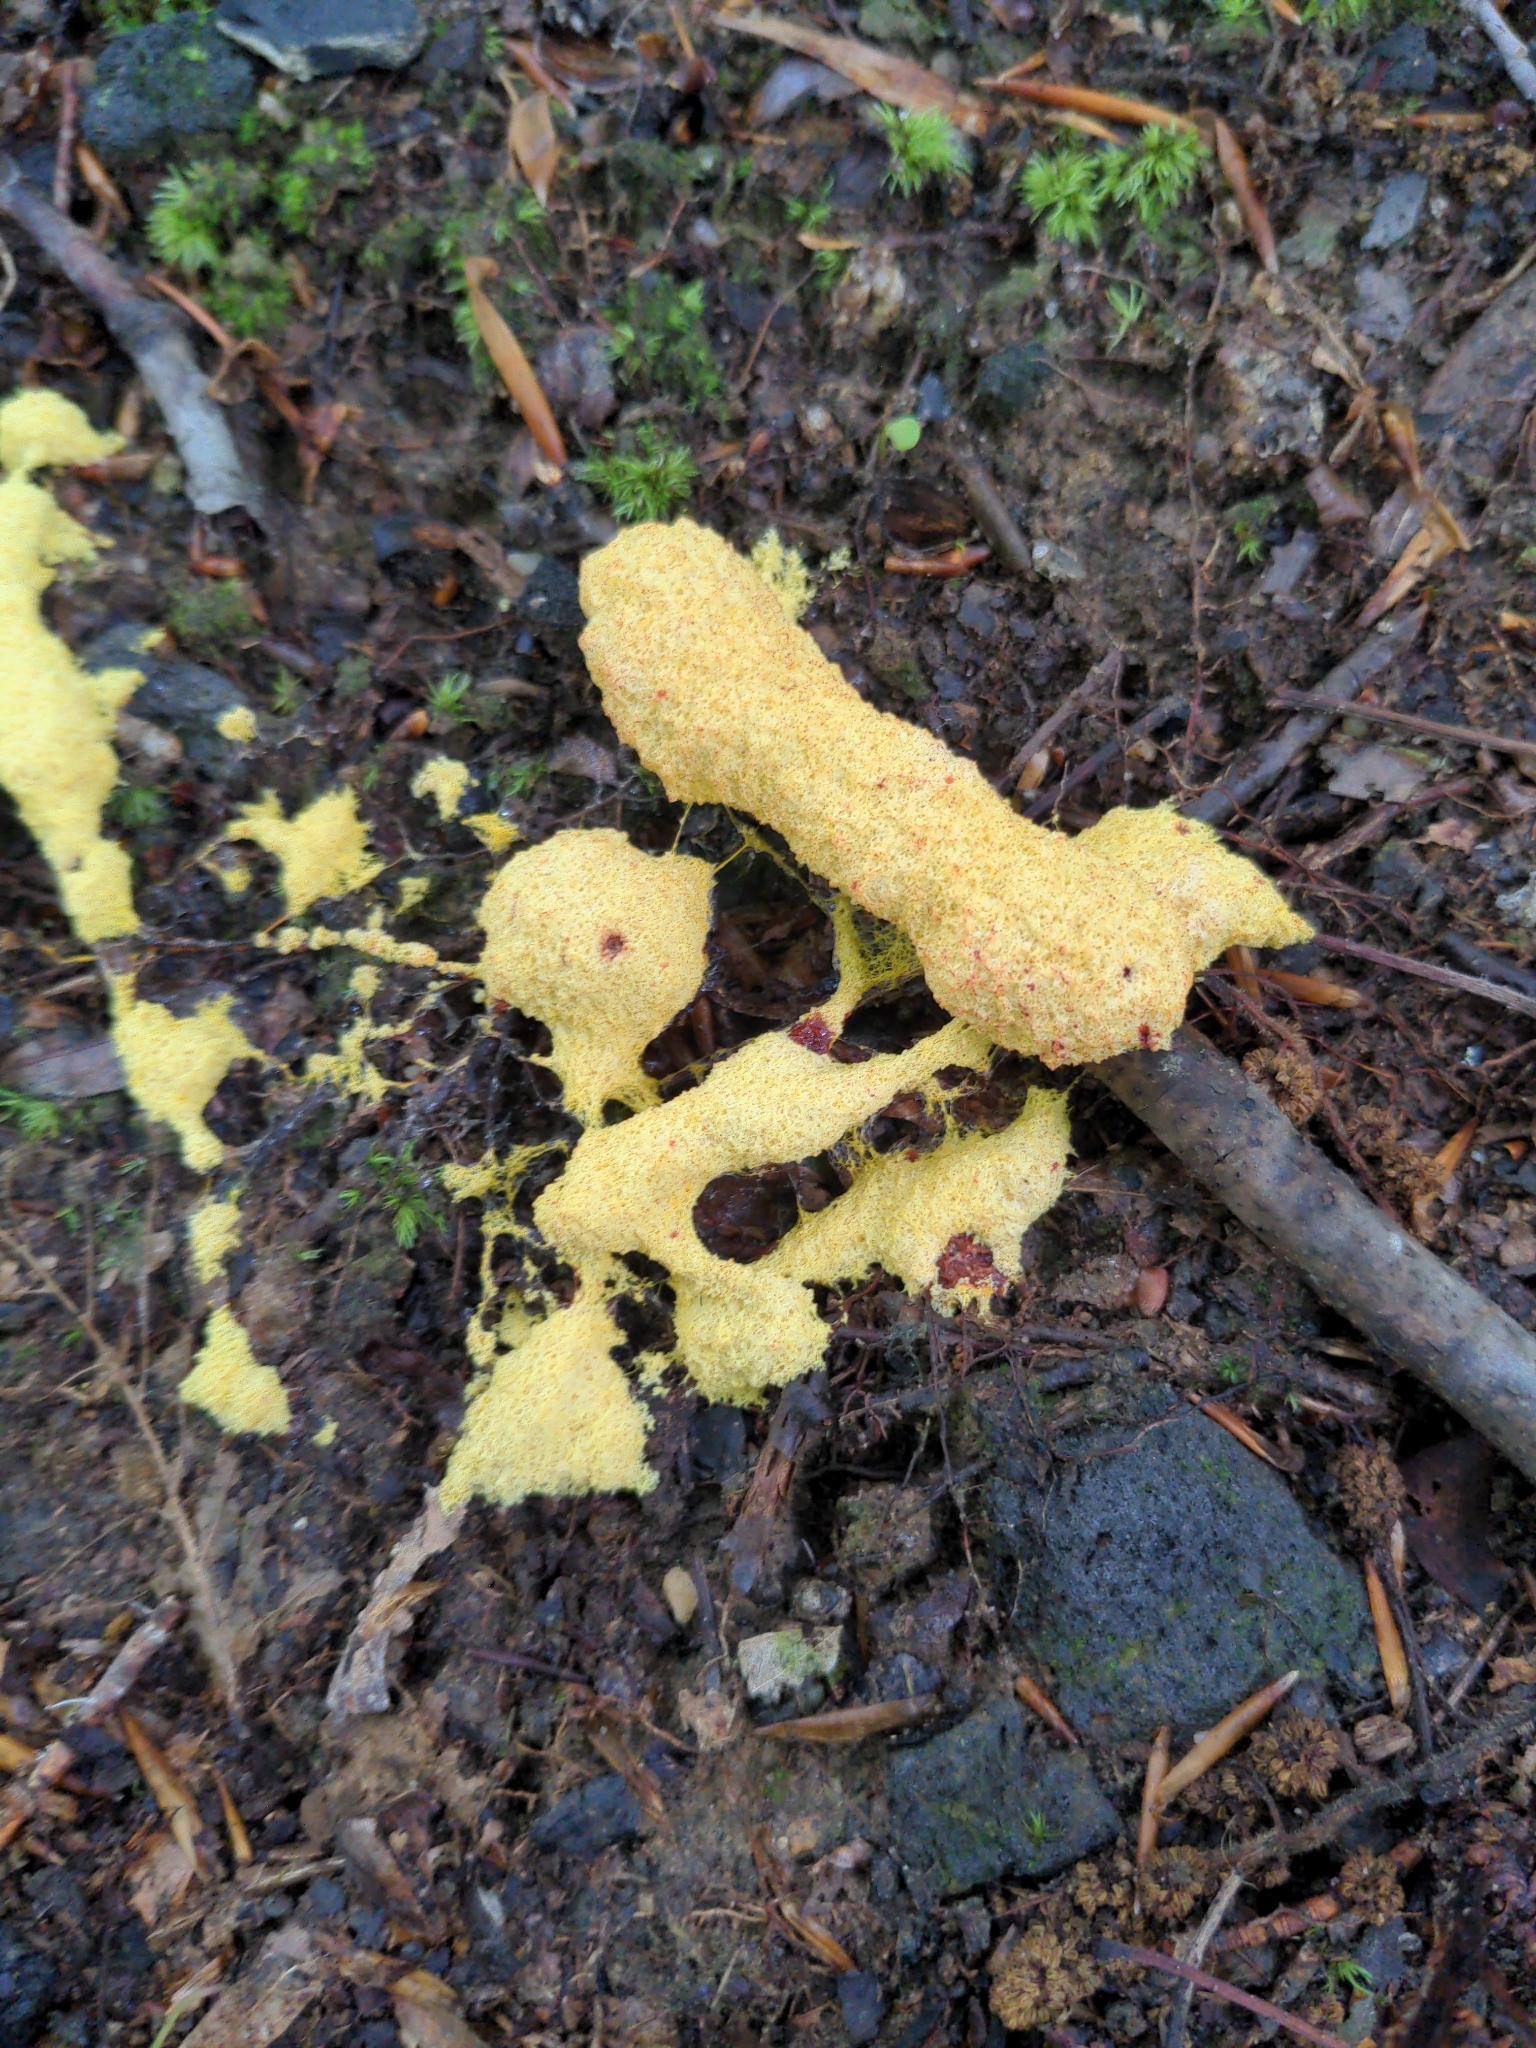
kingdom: Protozoa
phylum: Mycetozoa
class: Myxomycetes
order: Physarales
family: Physaraceae
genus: Fuligo
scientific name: Fuligo septica
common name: Dog vomit slime mold
